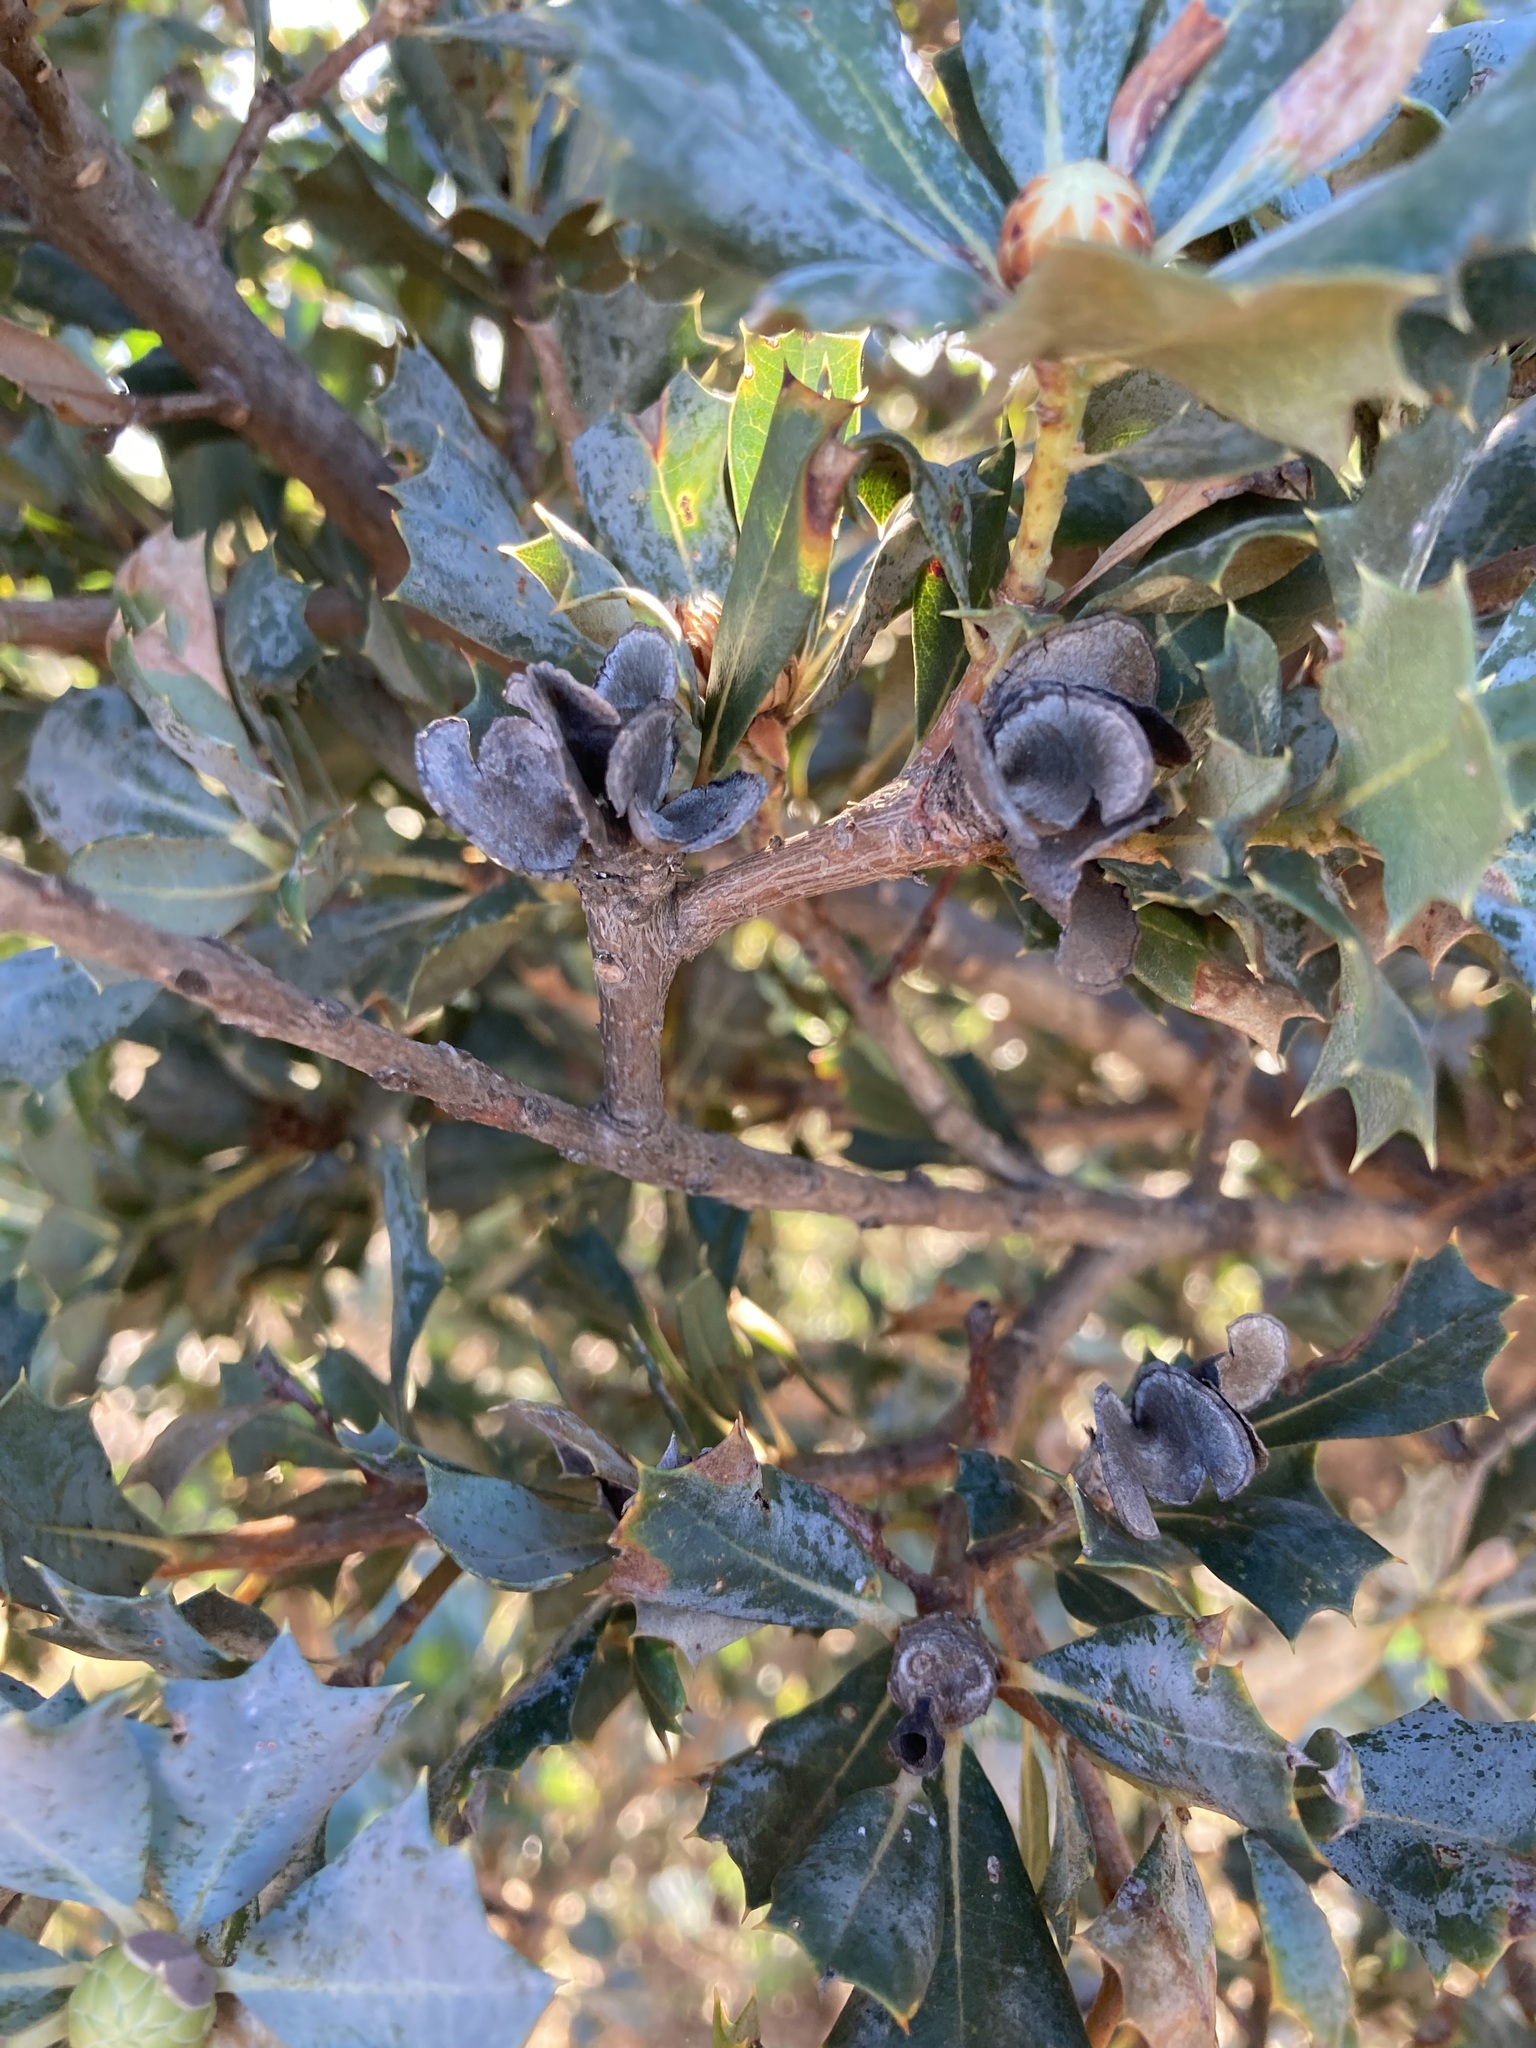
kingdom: Plantae
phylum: Tracheophyta
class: Magnoliopsida
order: Proteales
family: Proteaceae
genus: Banksia
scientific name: Banksia sessilis
